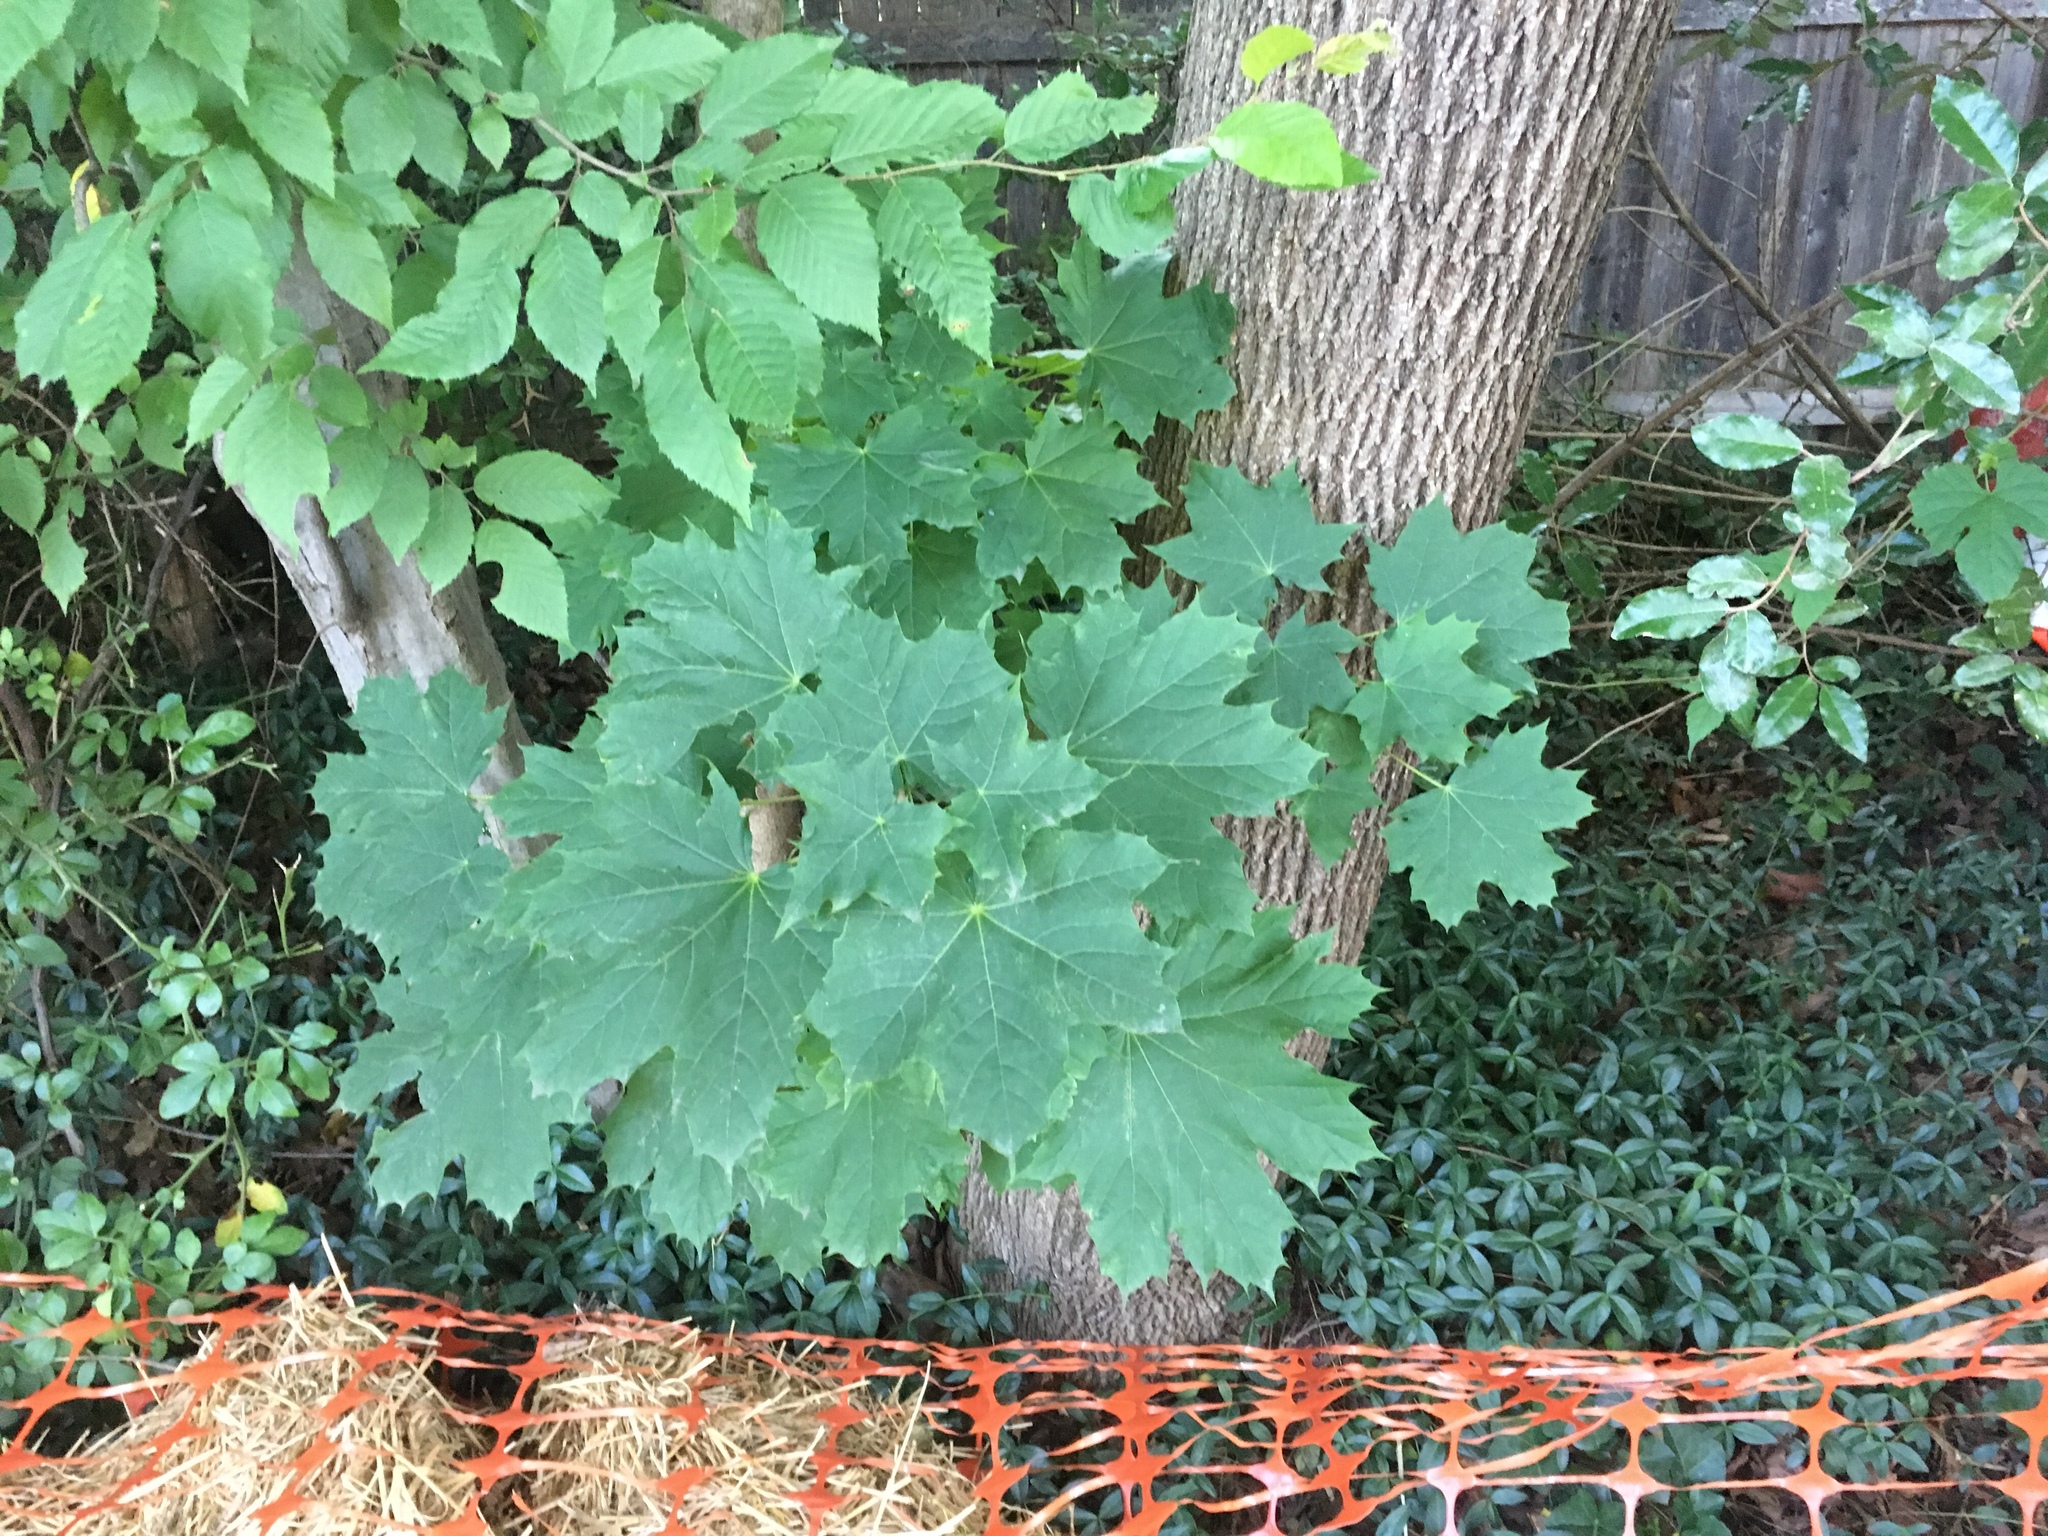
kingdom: Plantae
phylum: Tracheophyta
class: Magnoliopsida
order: Sapindales
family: Sapindaceae
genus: Acer
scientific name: Acer platanoides
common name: Norway maple
